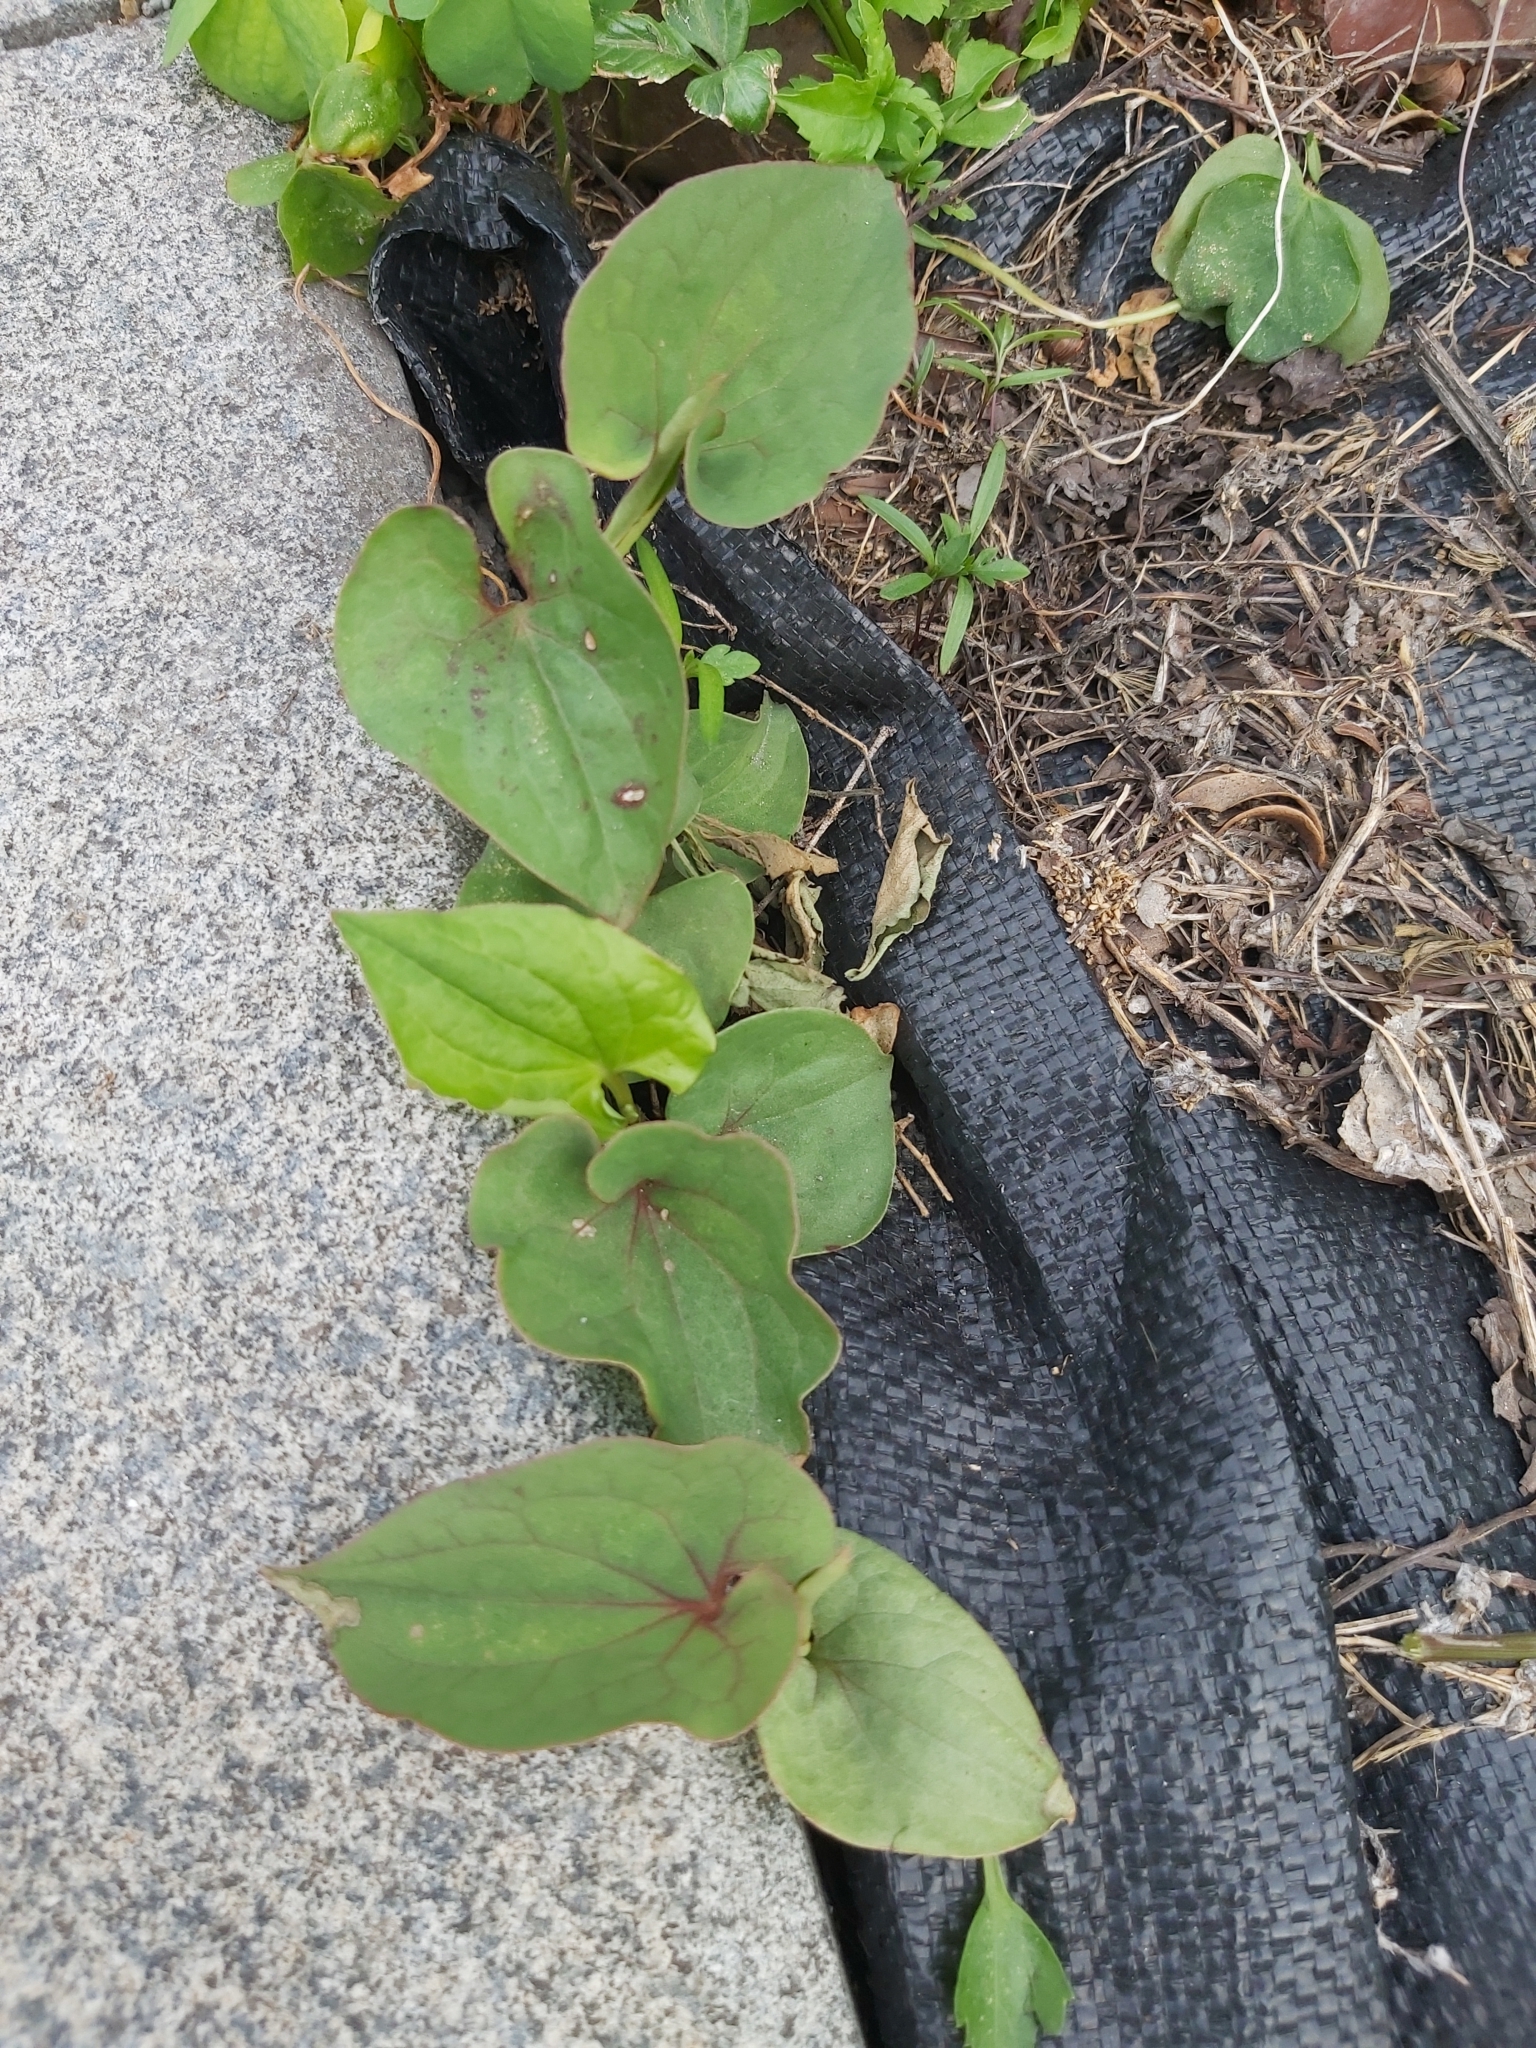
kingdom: Plantae
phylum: Tracheophyta
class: Magnoliopsida
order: Piperales
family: Saururaceae
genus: Houttuynia
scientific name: Houttuynia cordata
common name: Chameleon
